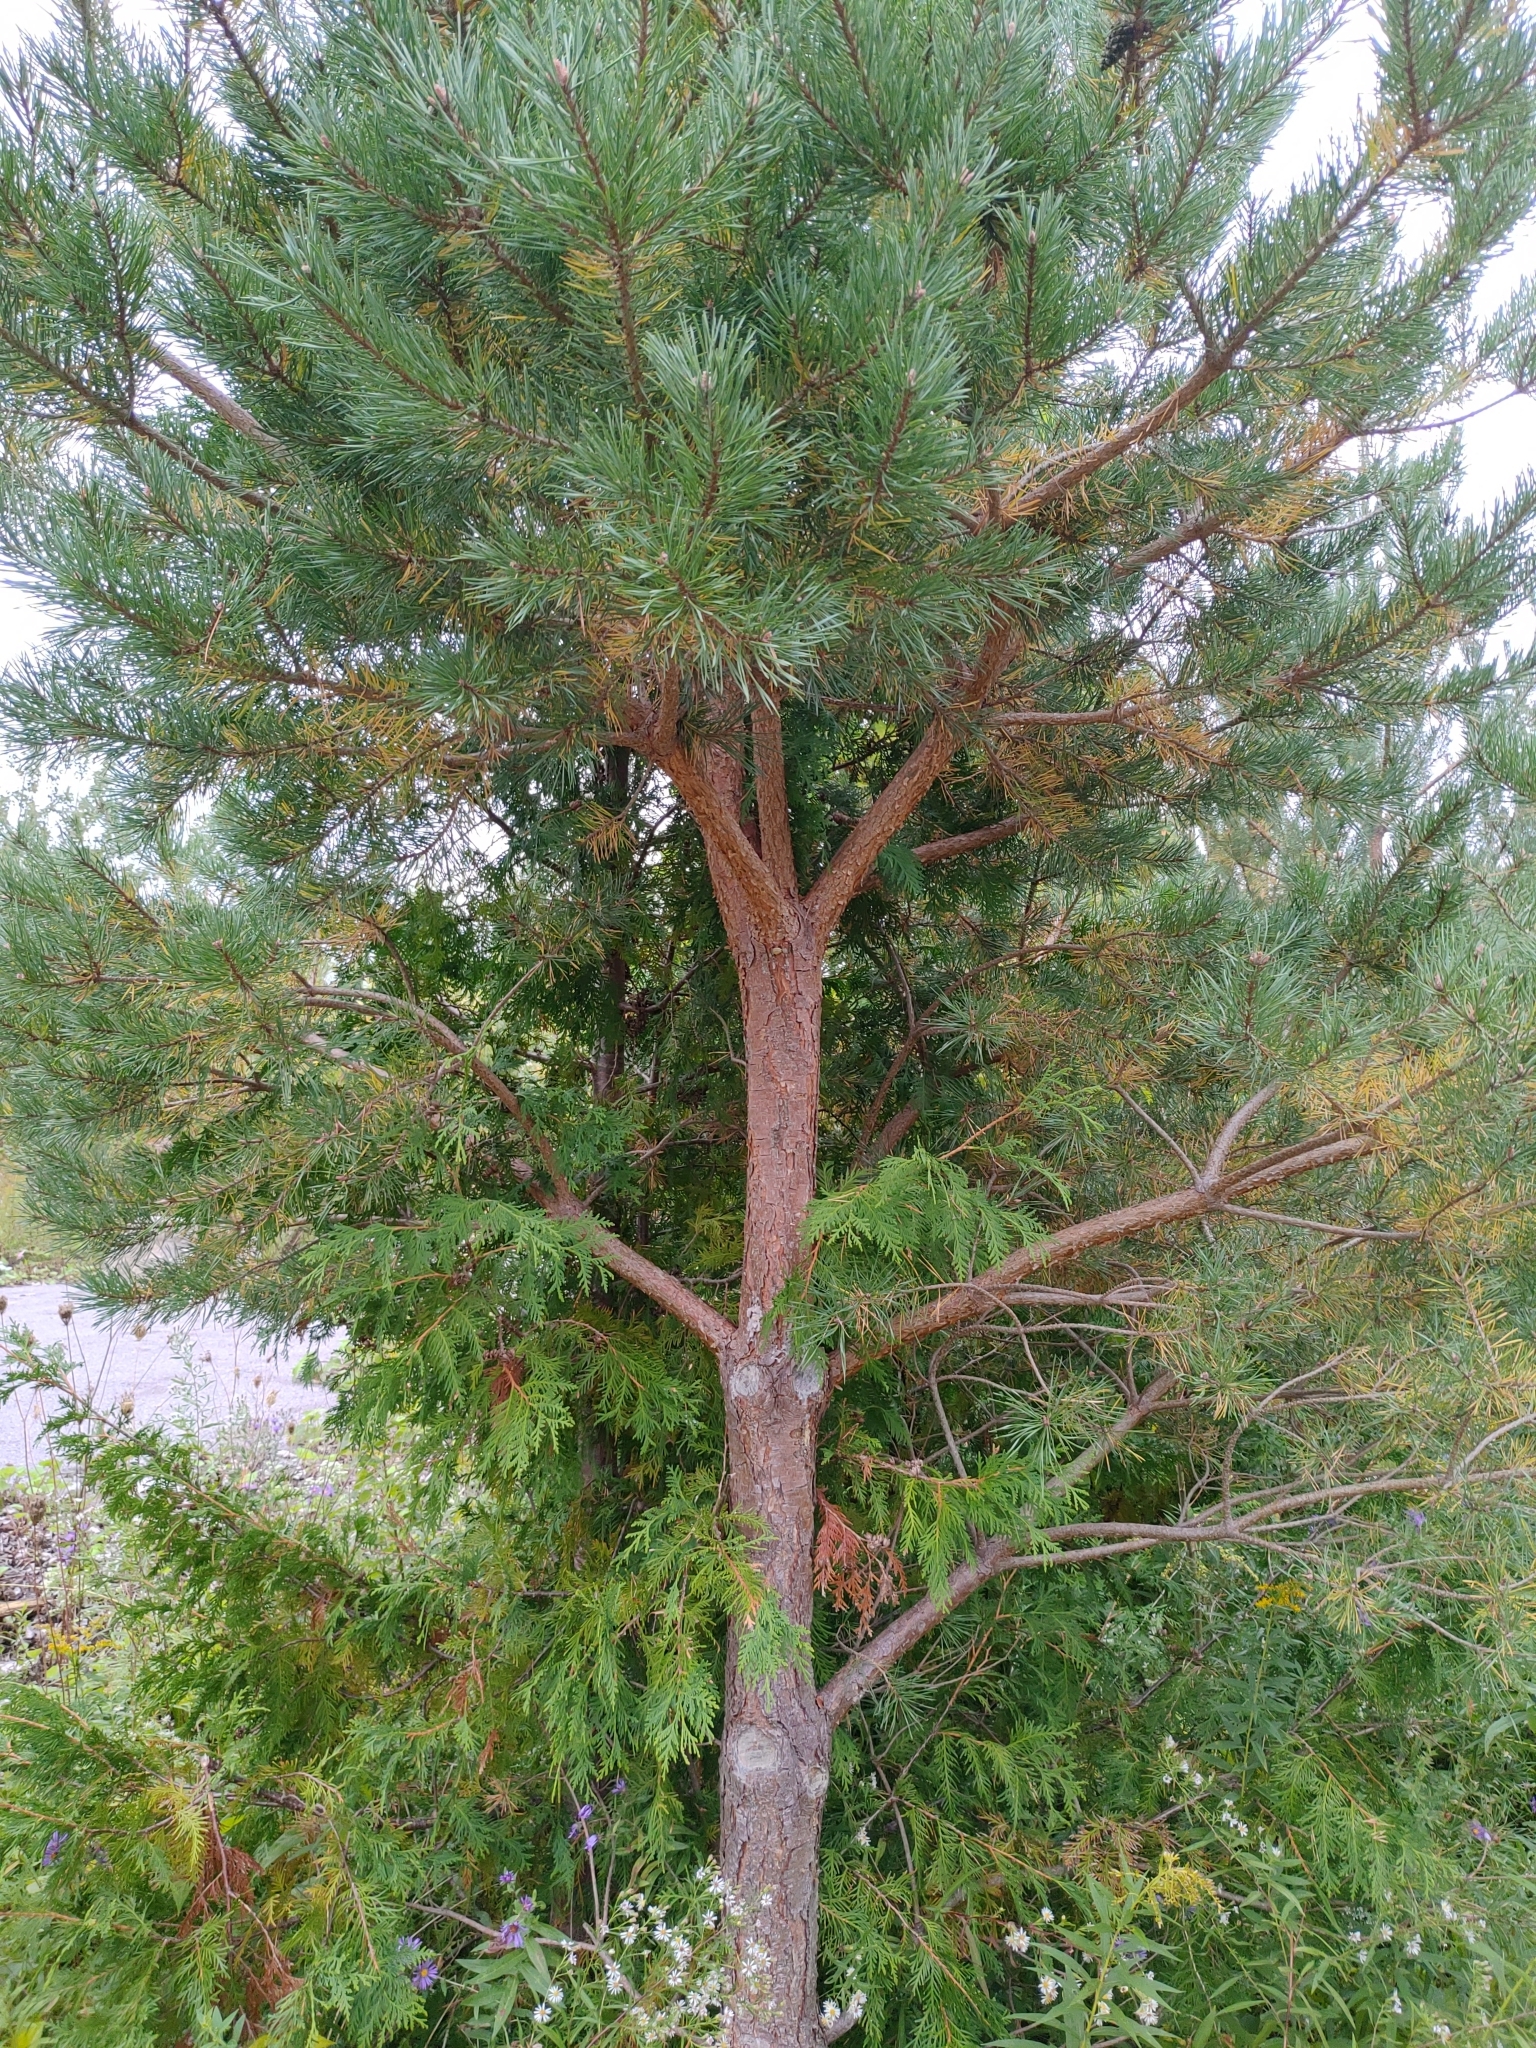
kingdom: Plantae
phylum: Tracheophyta
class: Pinopsida
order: Pinales
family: Pinaceae
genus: Pinus
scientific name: Pinus sylvestris
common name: Scots pine
